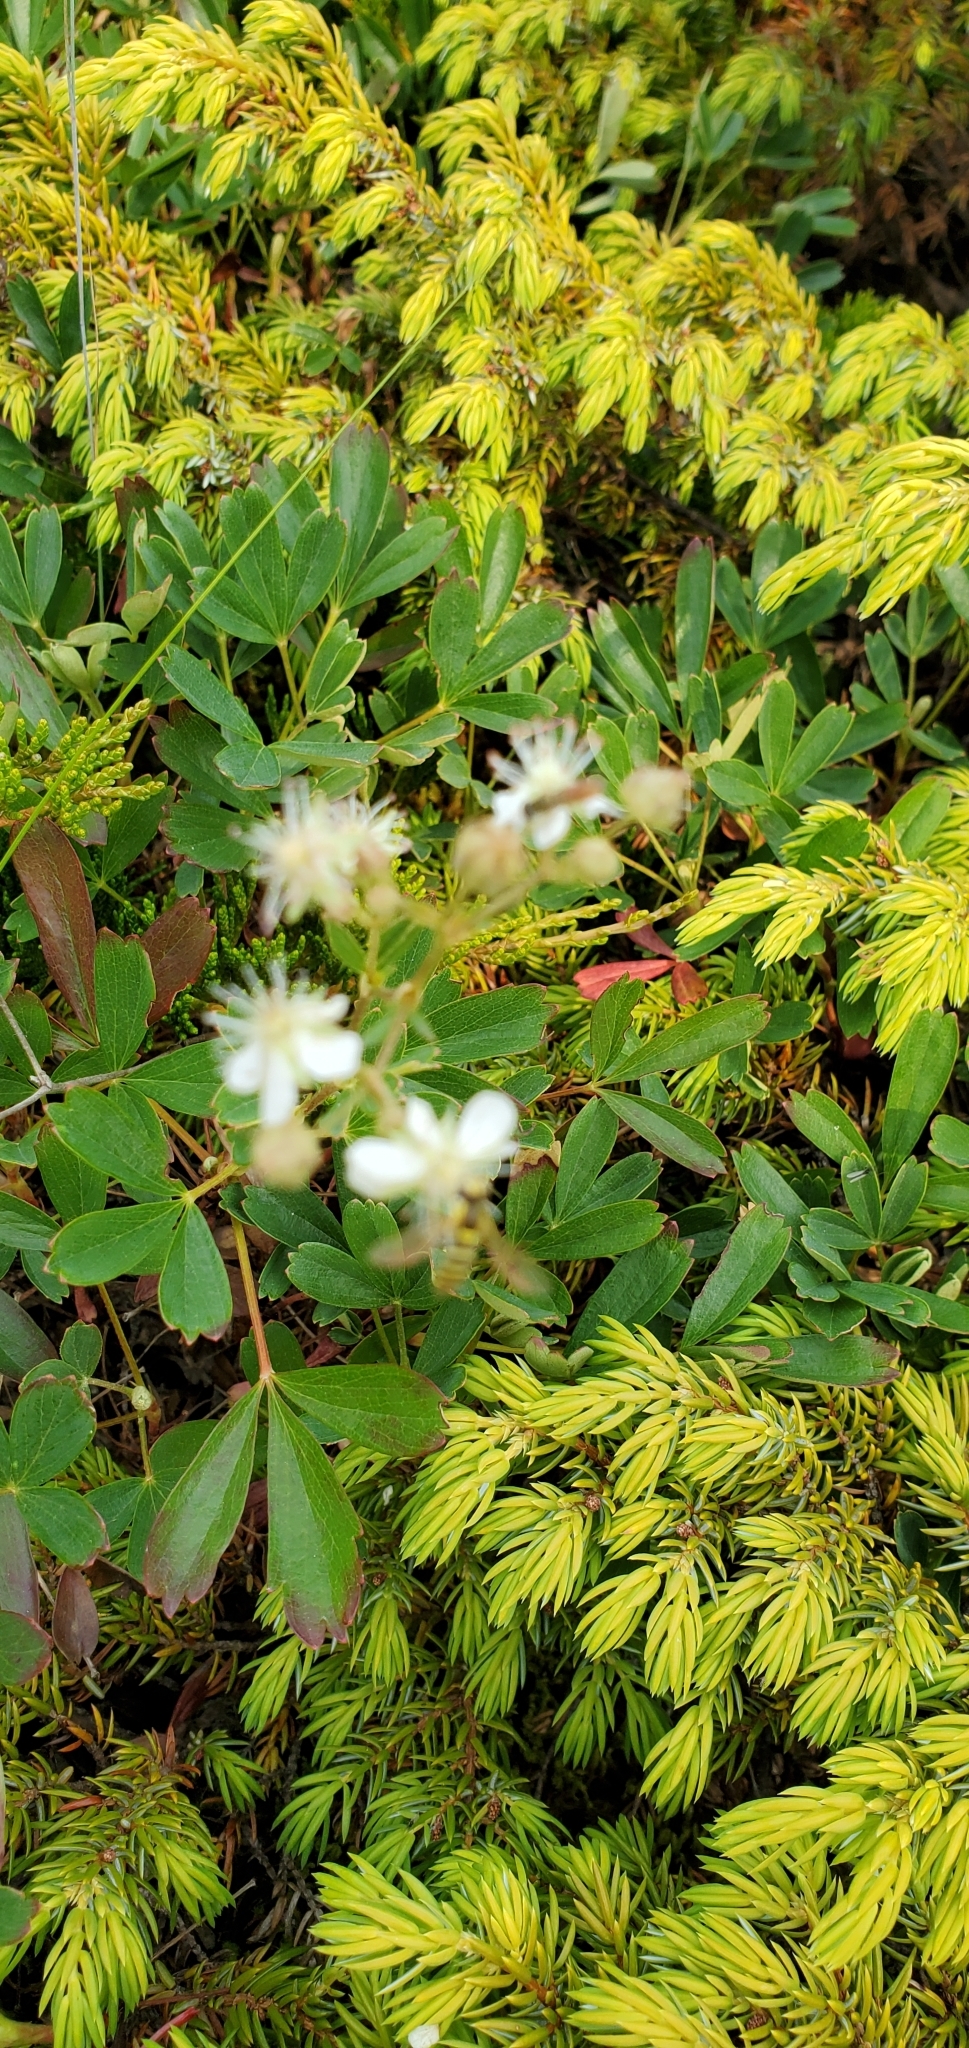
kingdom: Plantae
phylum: Tracheophyta
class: Magnoliopsida
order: Rosales
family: Rosaceae
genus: Sibbaldia
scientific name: Sibbaldia tridentata
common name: Three-toothed cinquefoil
